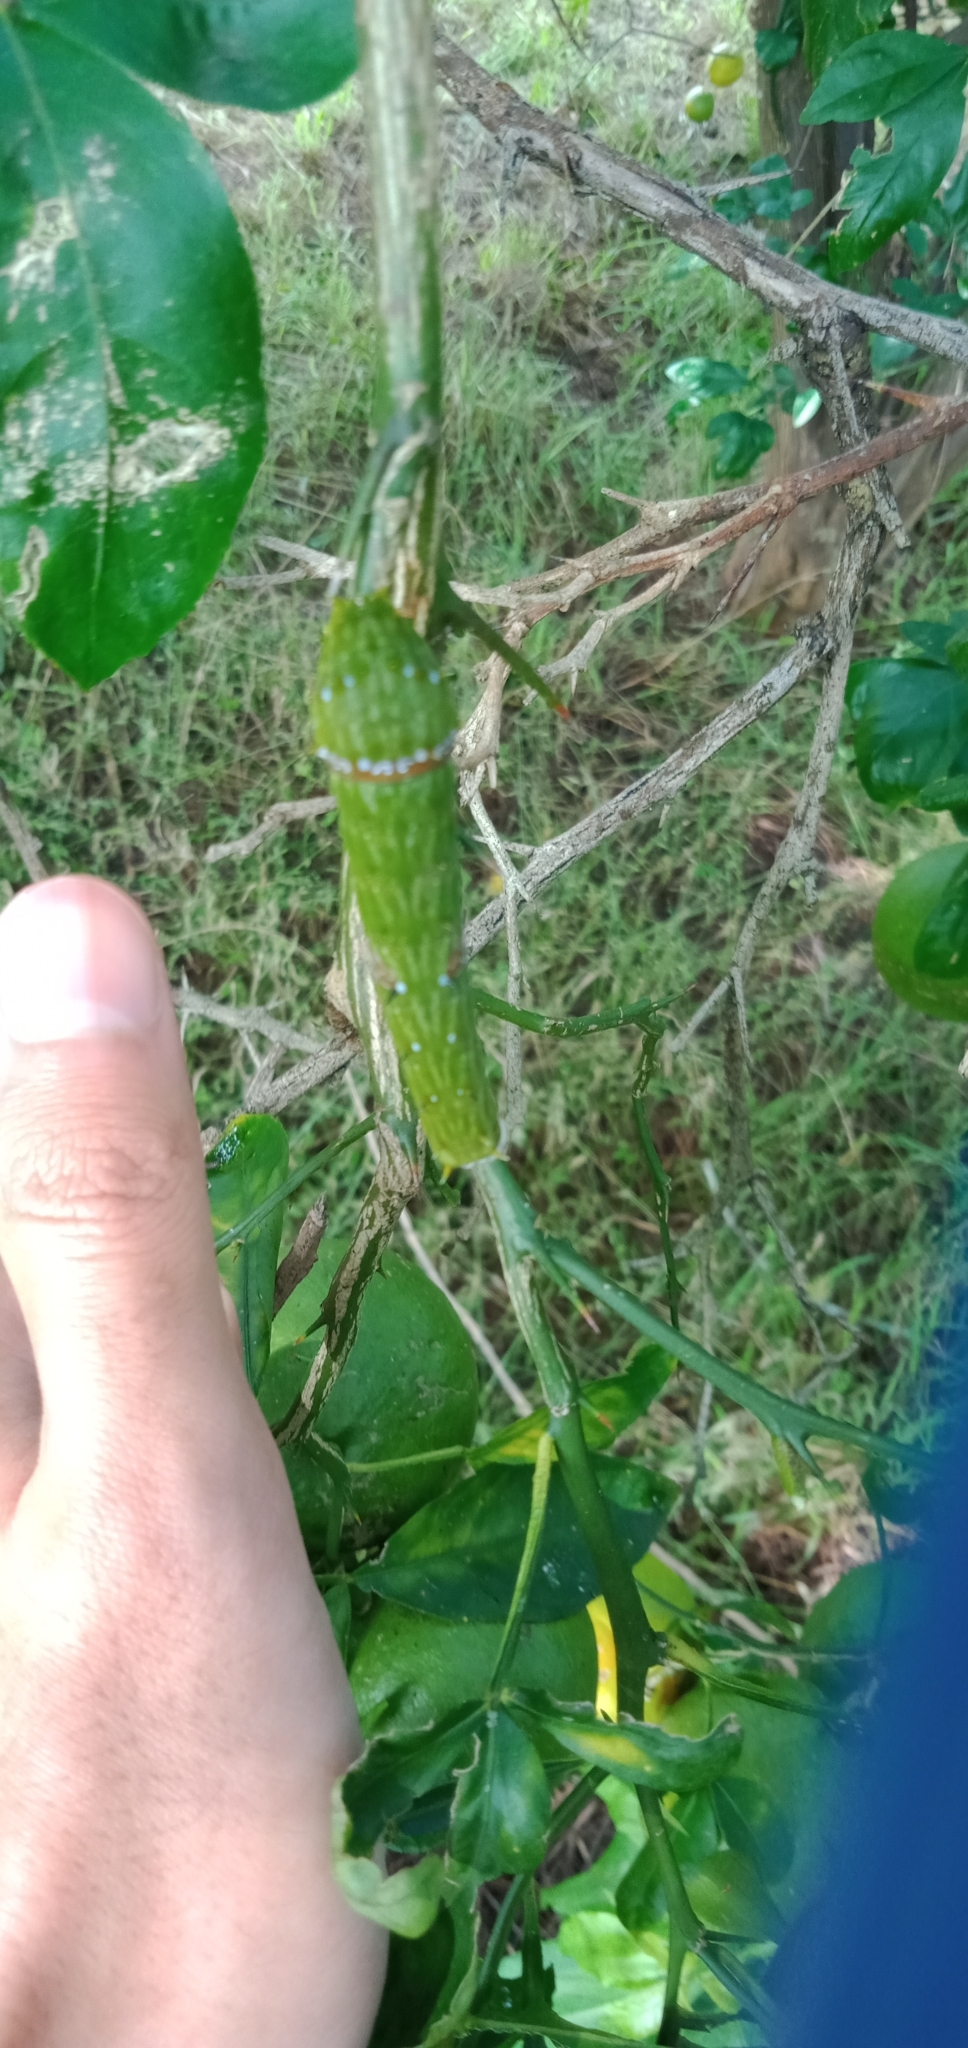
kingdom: Animalia
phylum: Arthropoda
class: Insecta
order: Lepidoptera
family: Papilionidae
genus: Papilio
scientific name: Papilio aegeus
